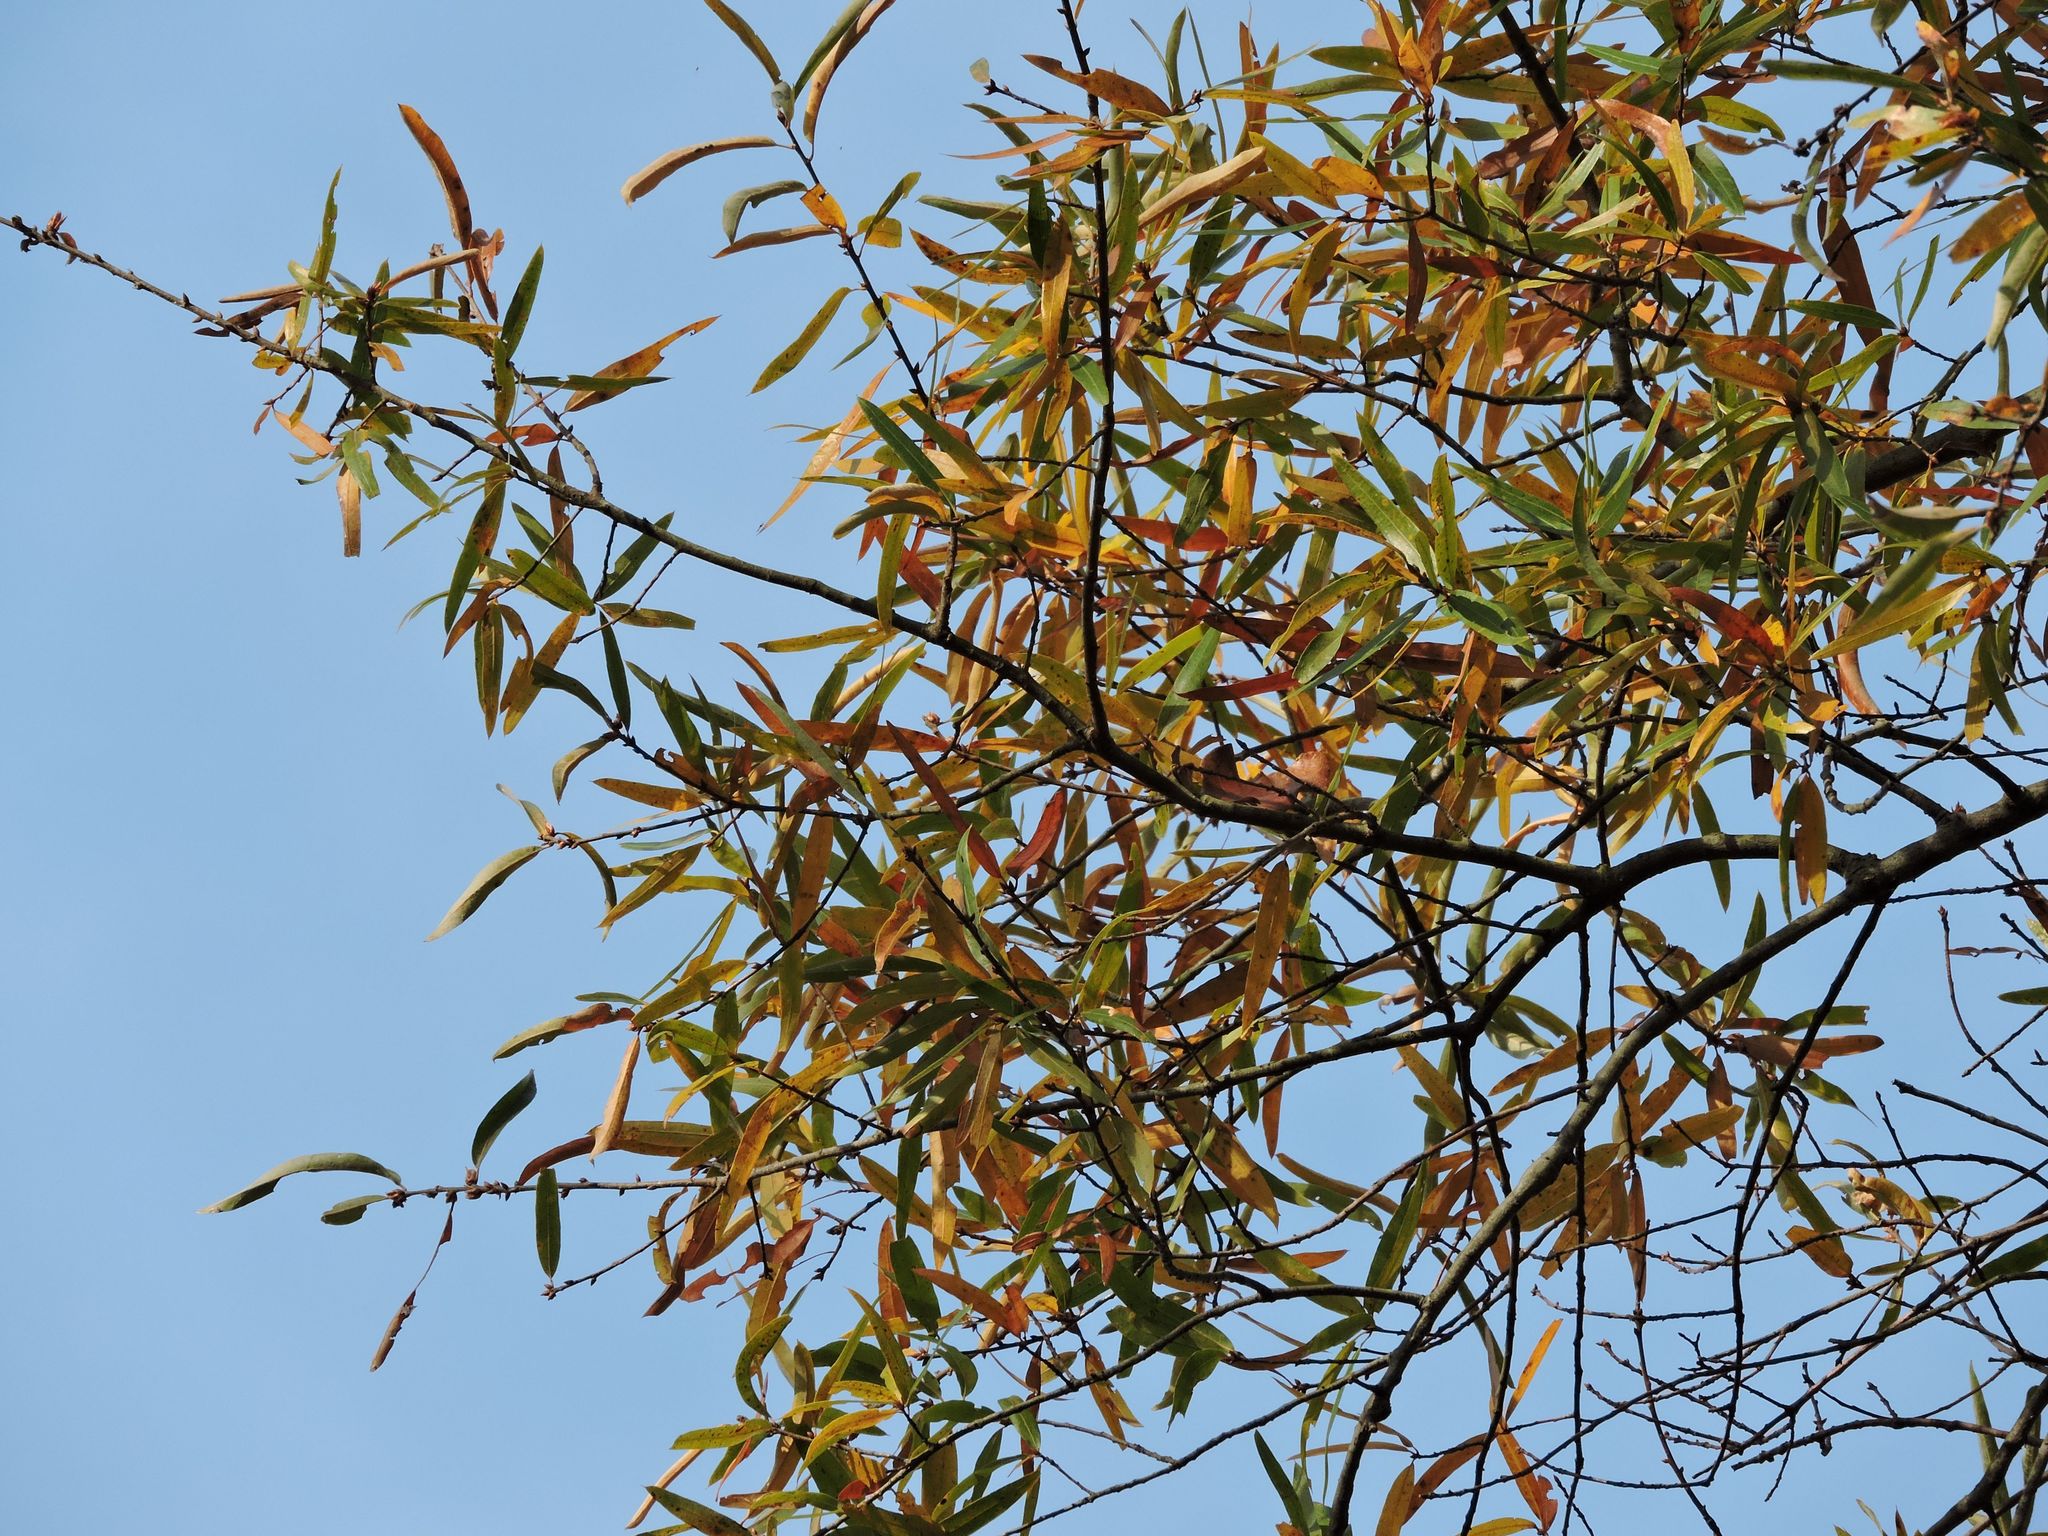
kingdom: Plantae
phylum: Tracheophyta
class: Magnoliopsida
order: Fagales
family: Fagaceae
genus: Quercus
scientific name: Quercus phellos
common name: Willow oak
